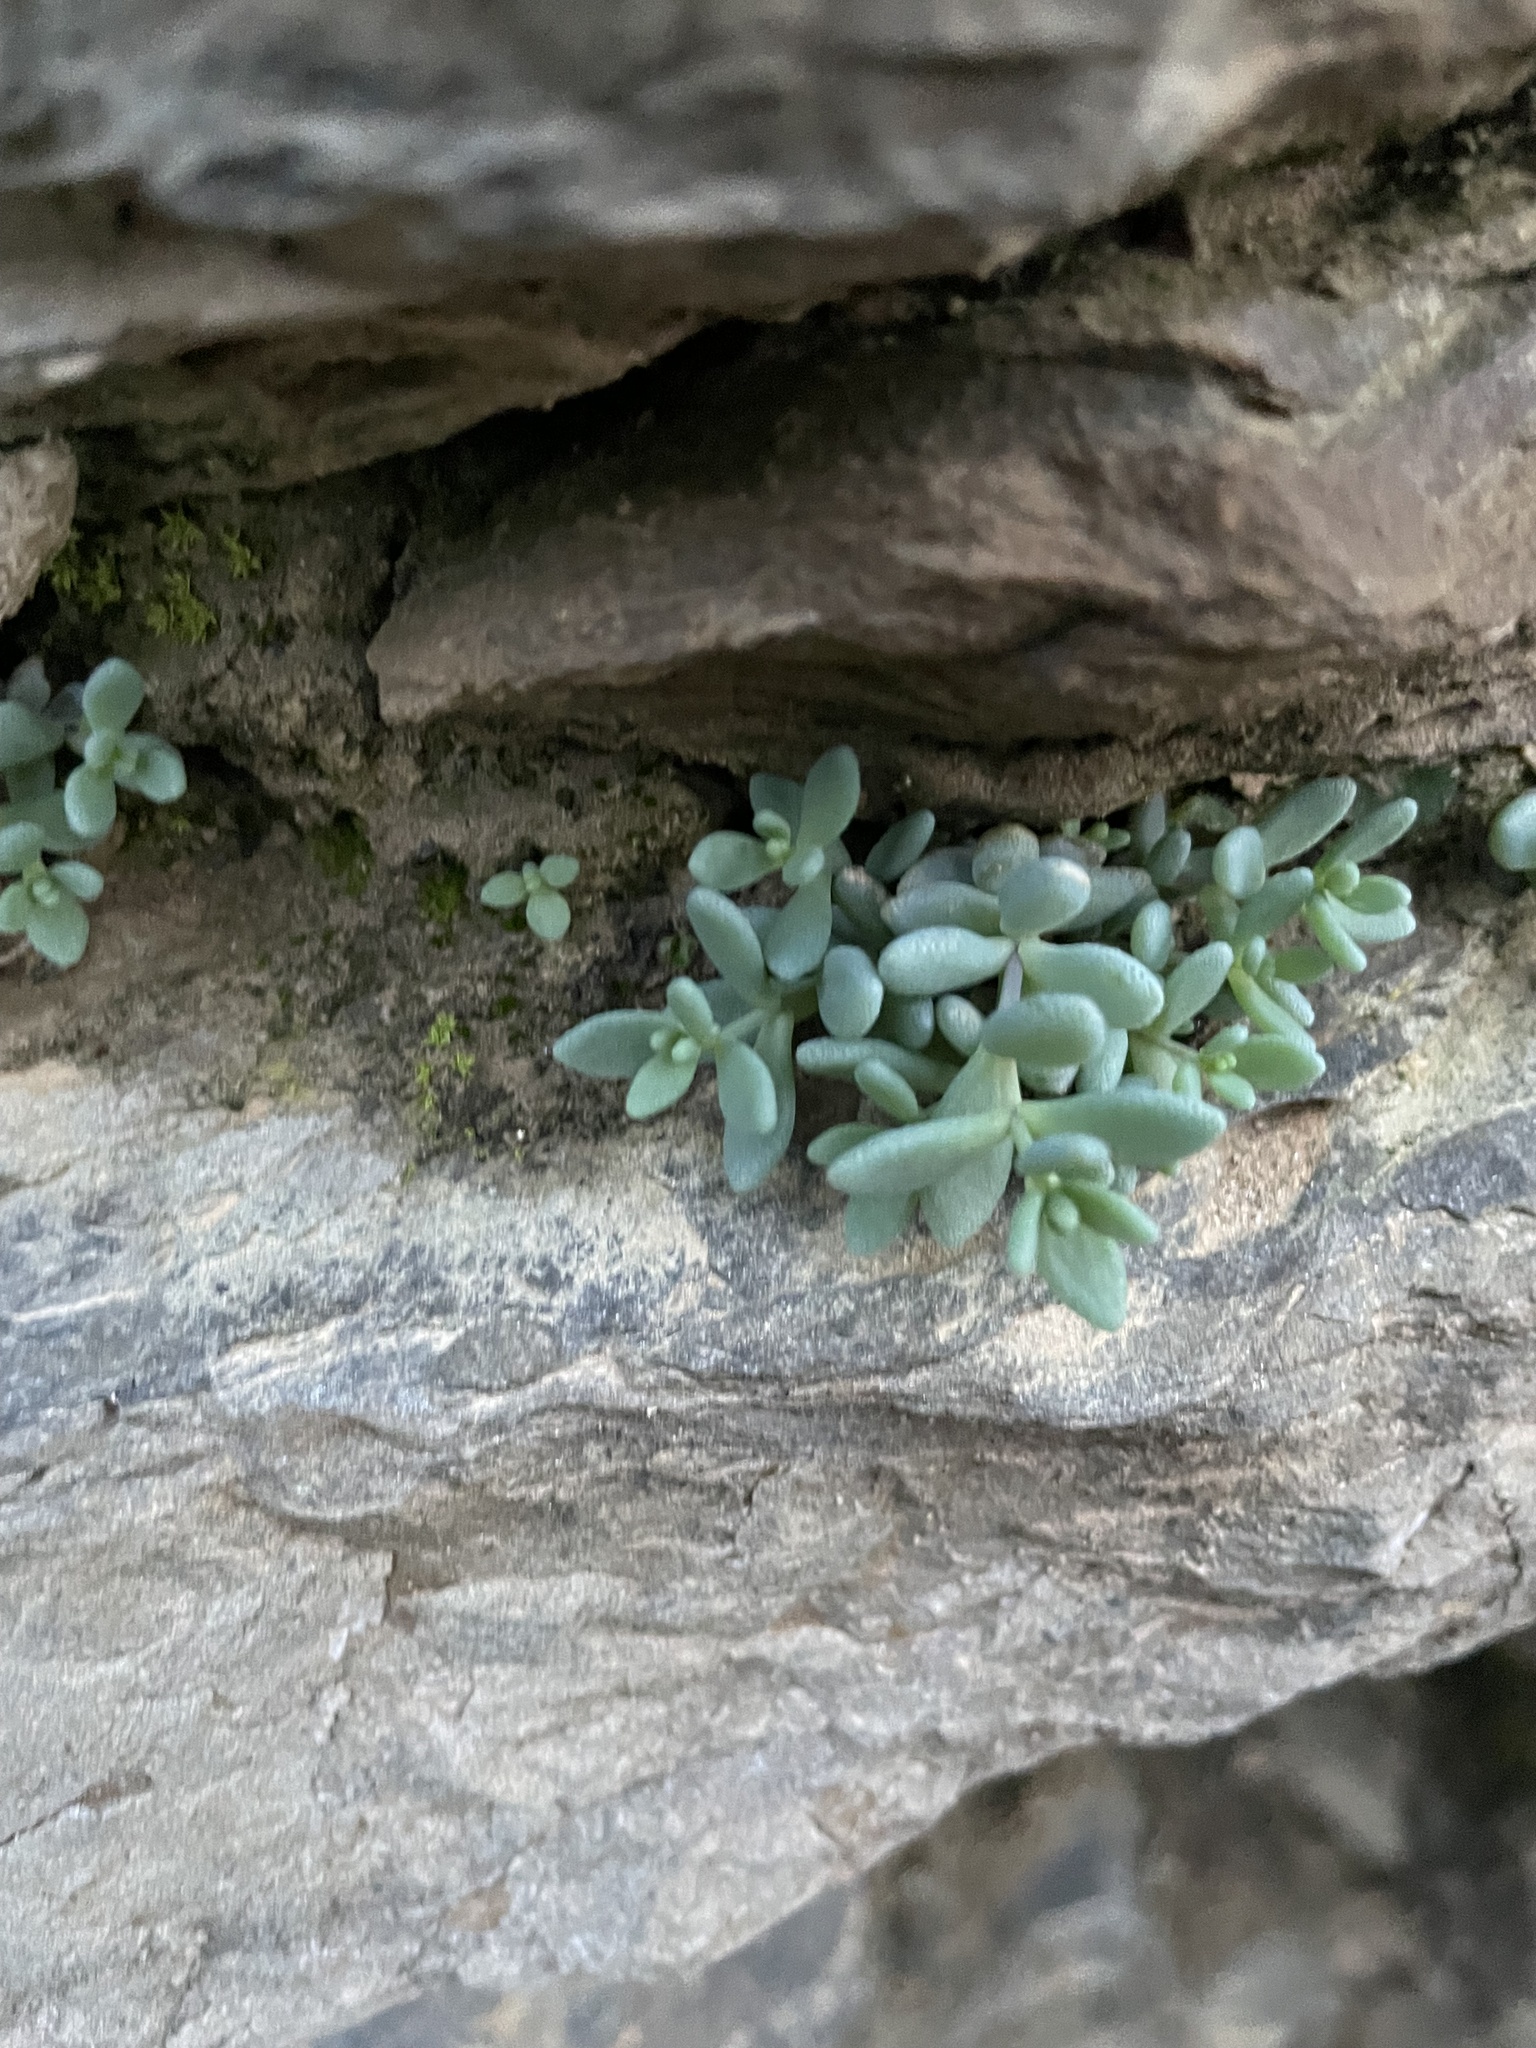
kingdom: Plantae
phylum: Tracheophyta
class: Magnoliopsida
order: Saxifragales
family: Crassulaceae
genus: Sedum
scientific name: Sedum dasyphyllum
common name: Thick-leaf stonecrop
